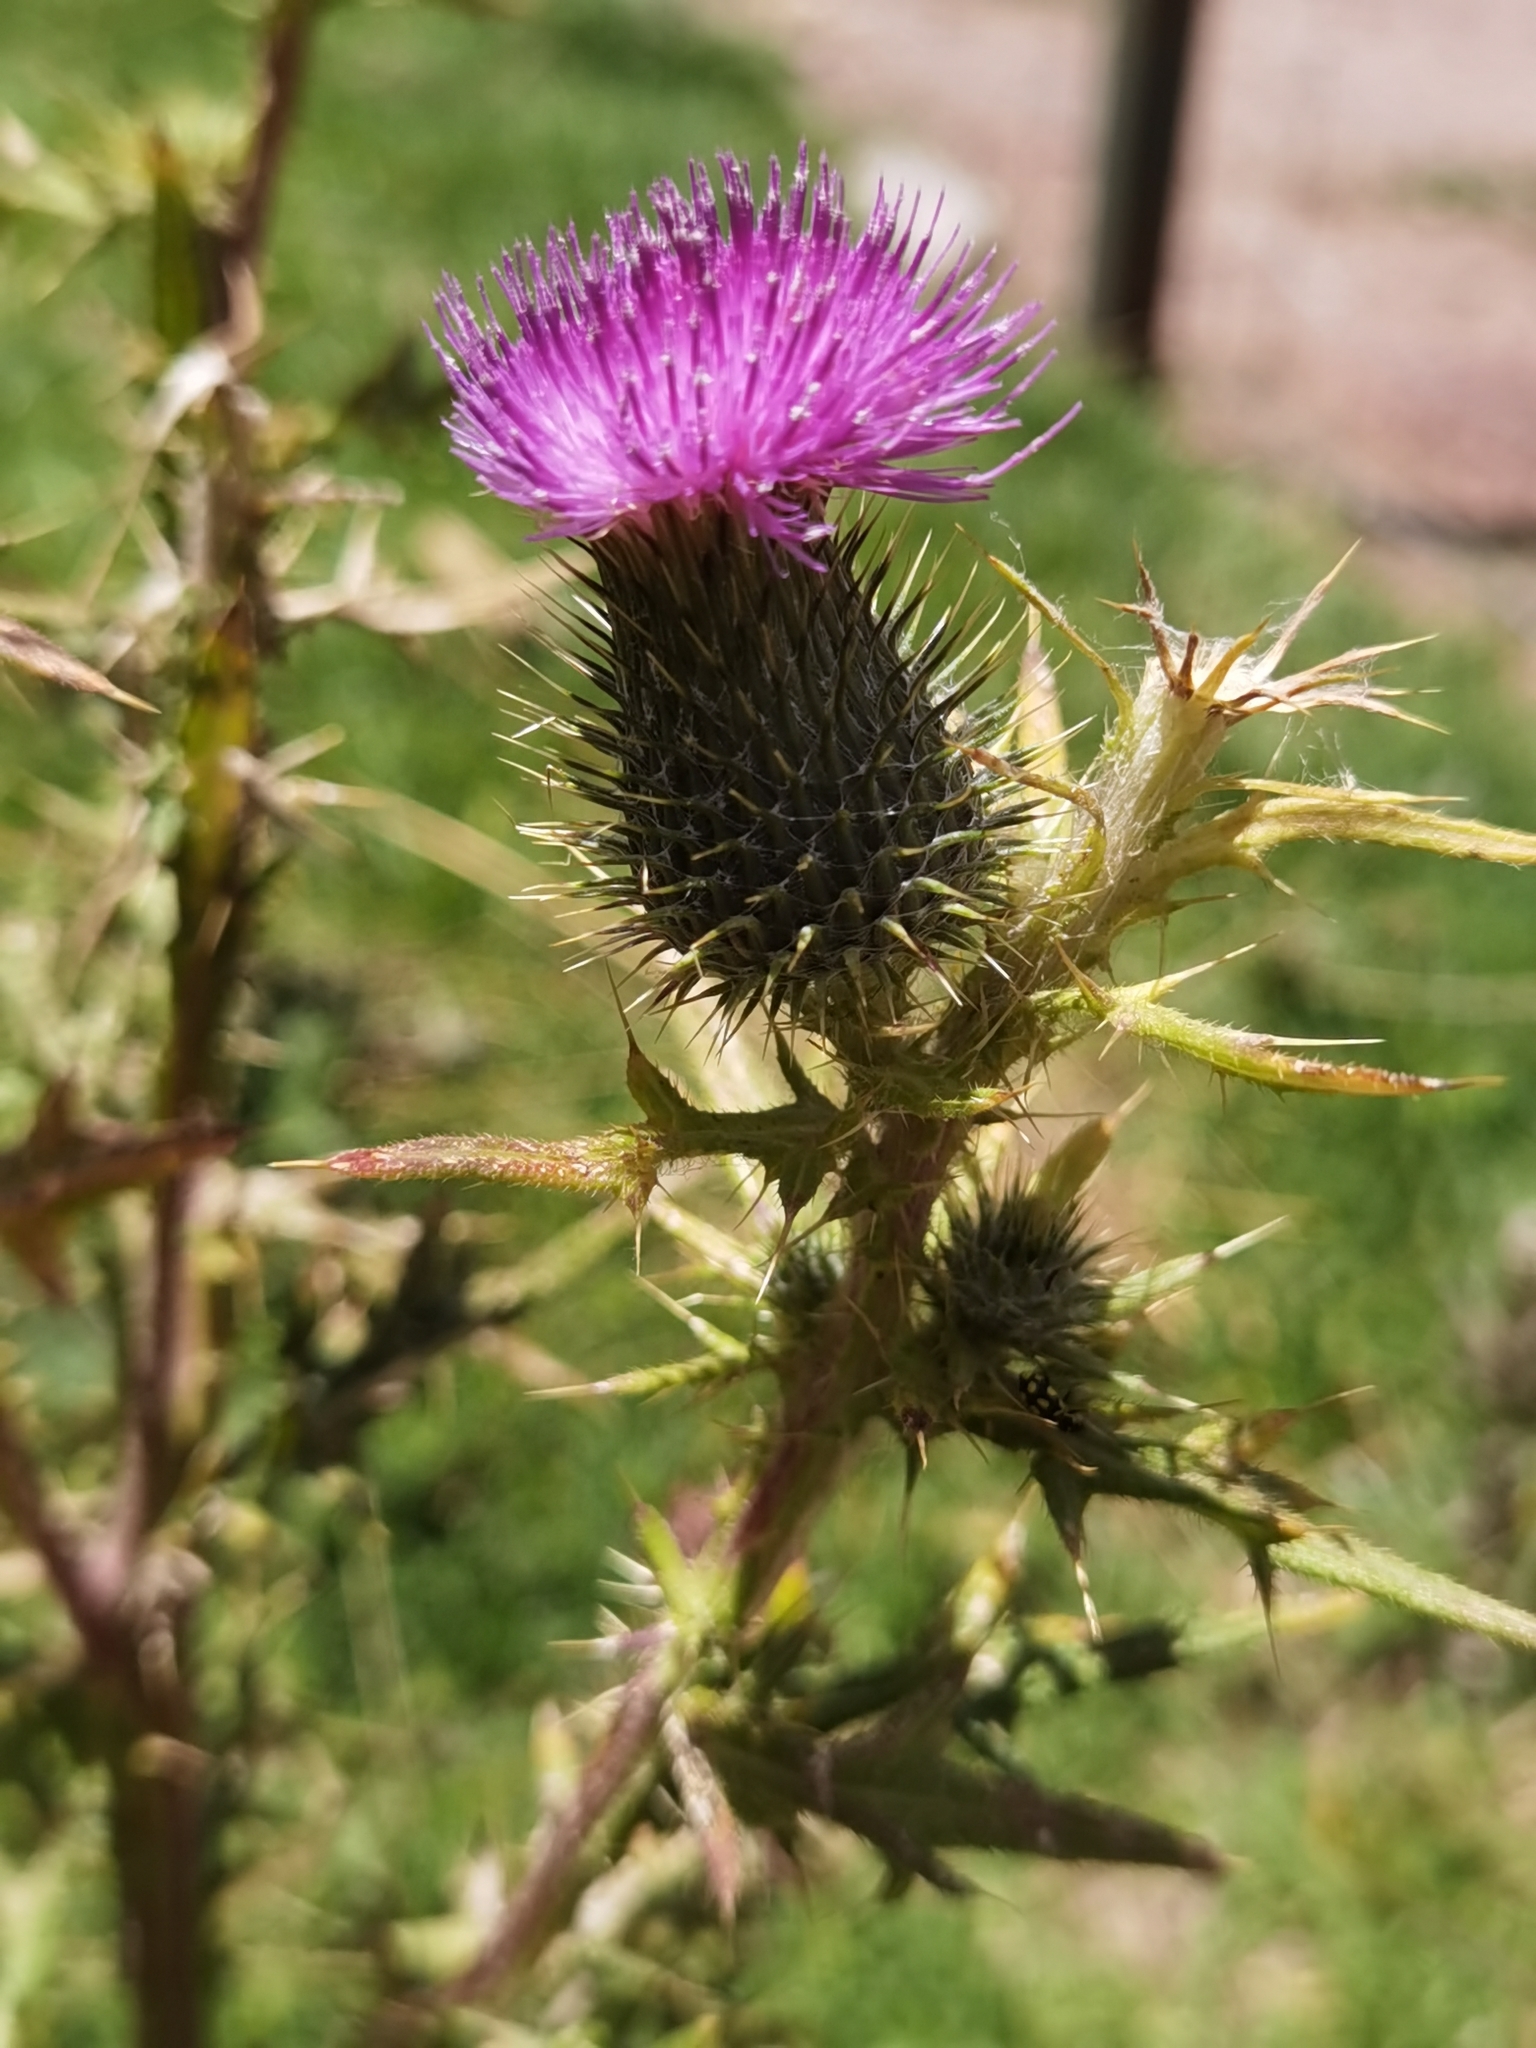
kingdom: Plantae
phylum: Tracheophyta
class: Magnoliopsida
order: Asterales
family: Asteraceae
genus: Cirsium
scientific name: Cirsium vulgare
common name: Bull thistle
